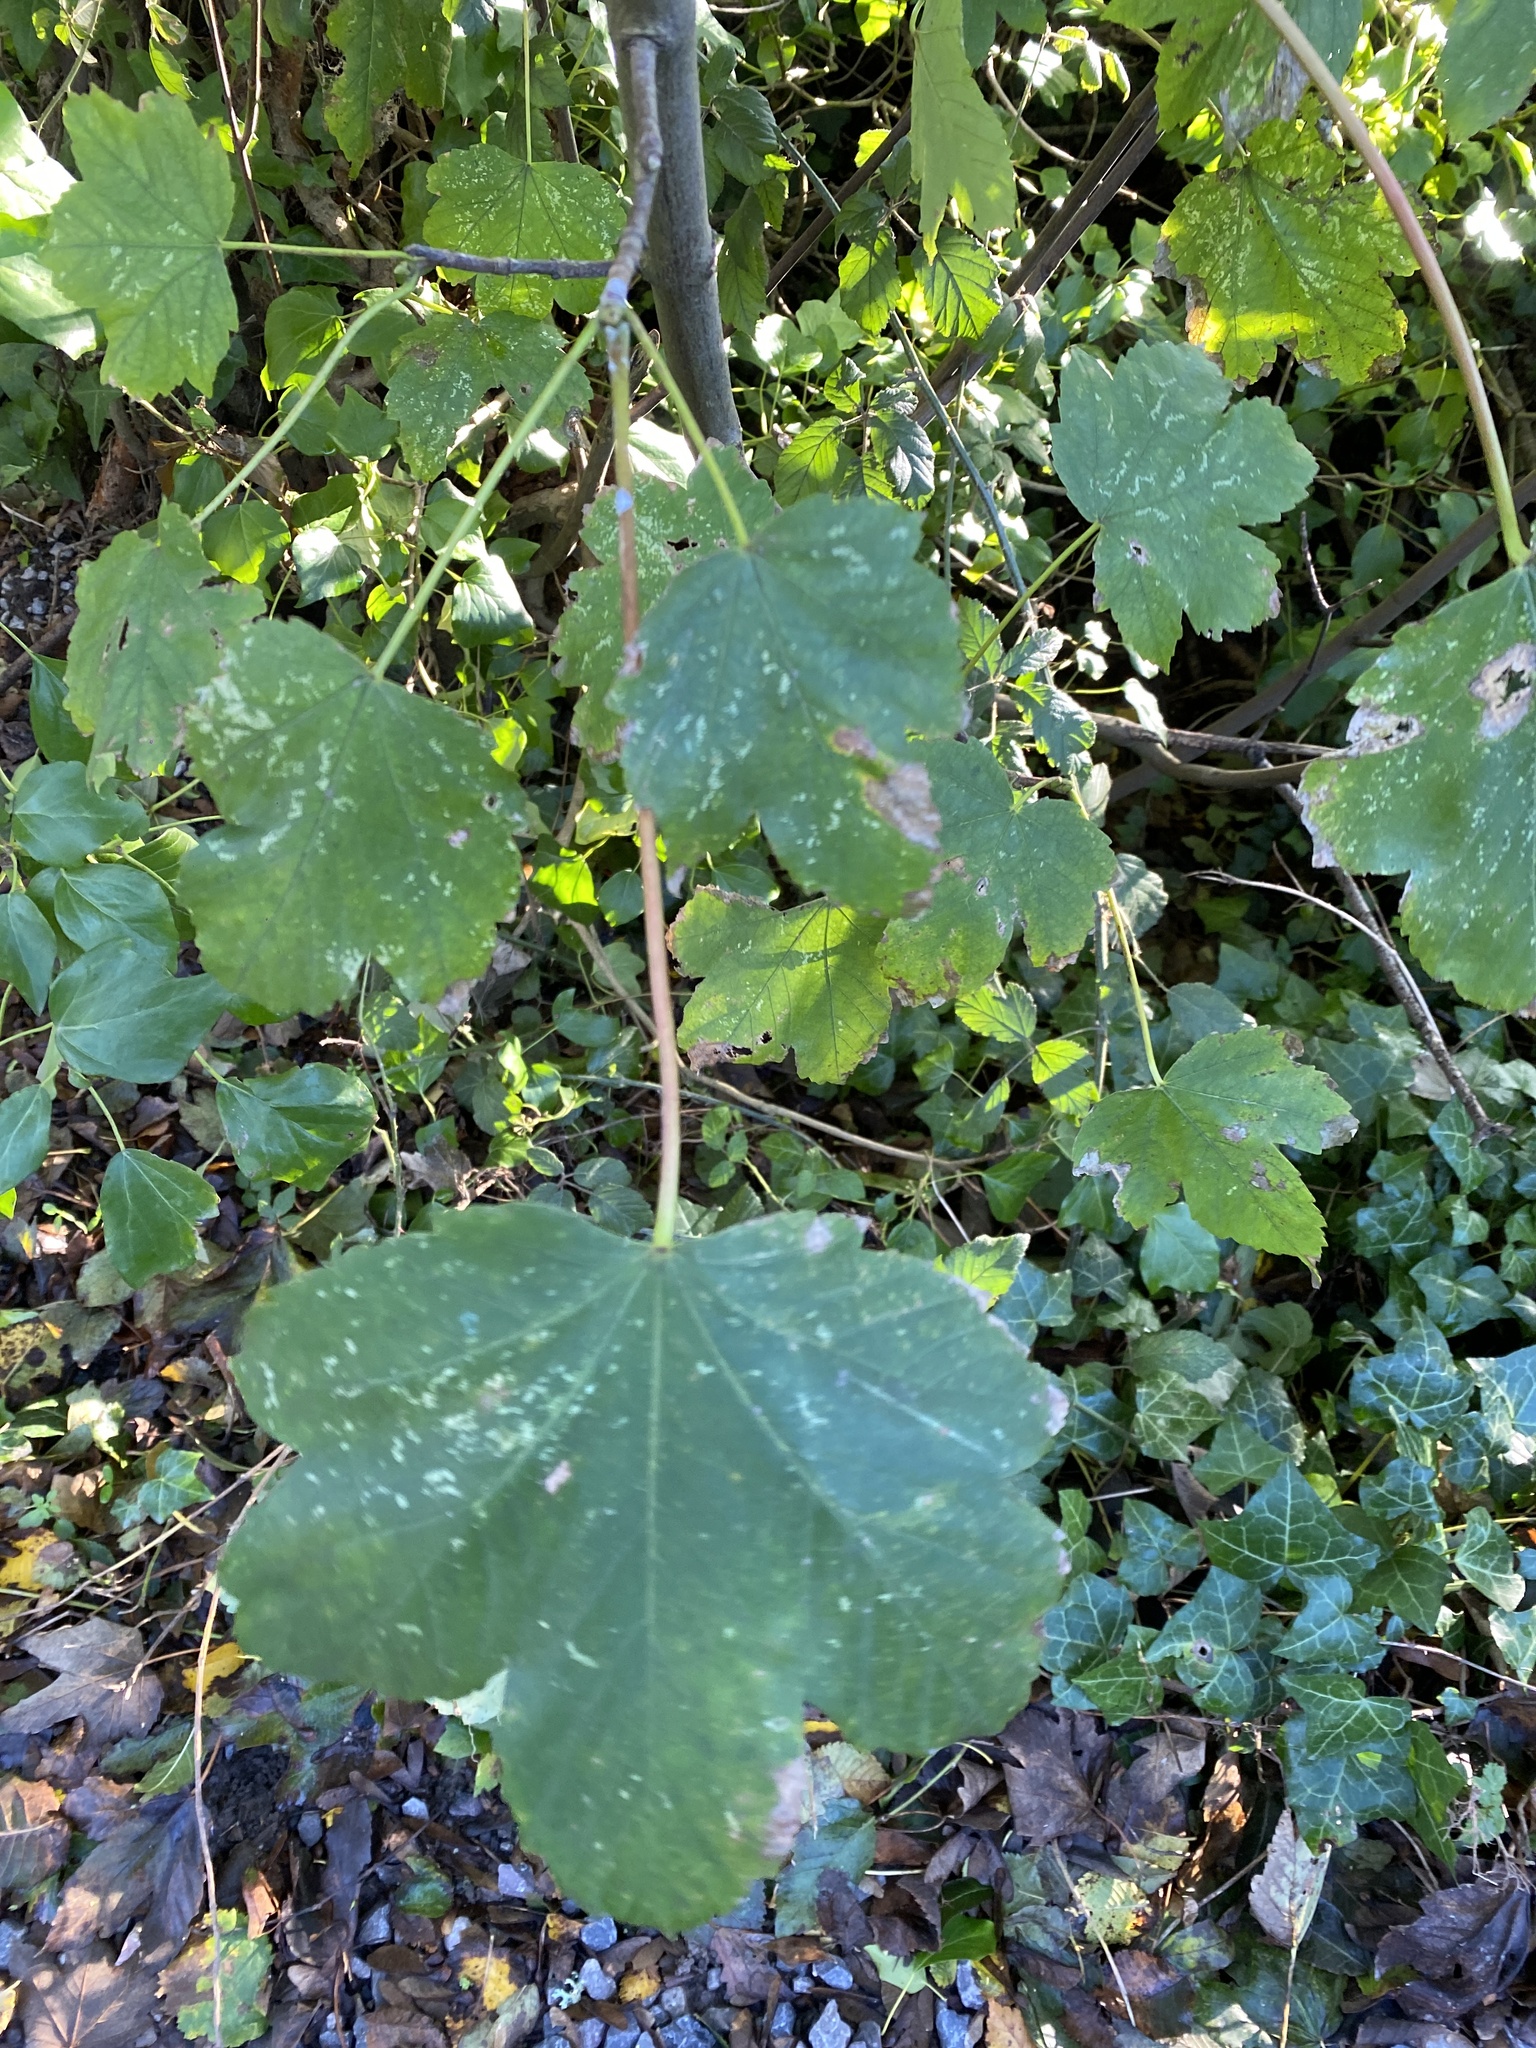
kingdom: Plantae
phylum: Tracheophyta
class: Magnoliopsida
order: Sapindales
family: Sapindaceae
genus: Acer
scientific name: Acer pseudoplatanus
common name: Sycamore
